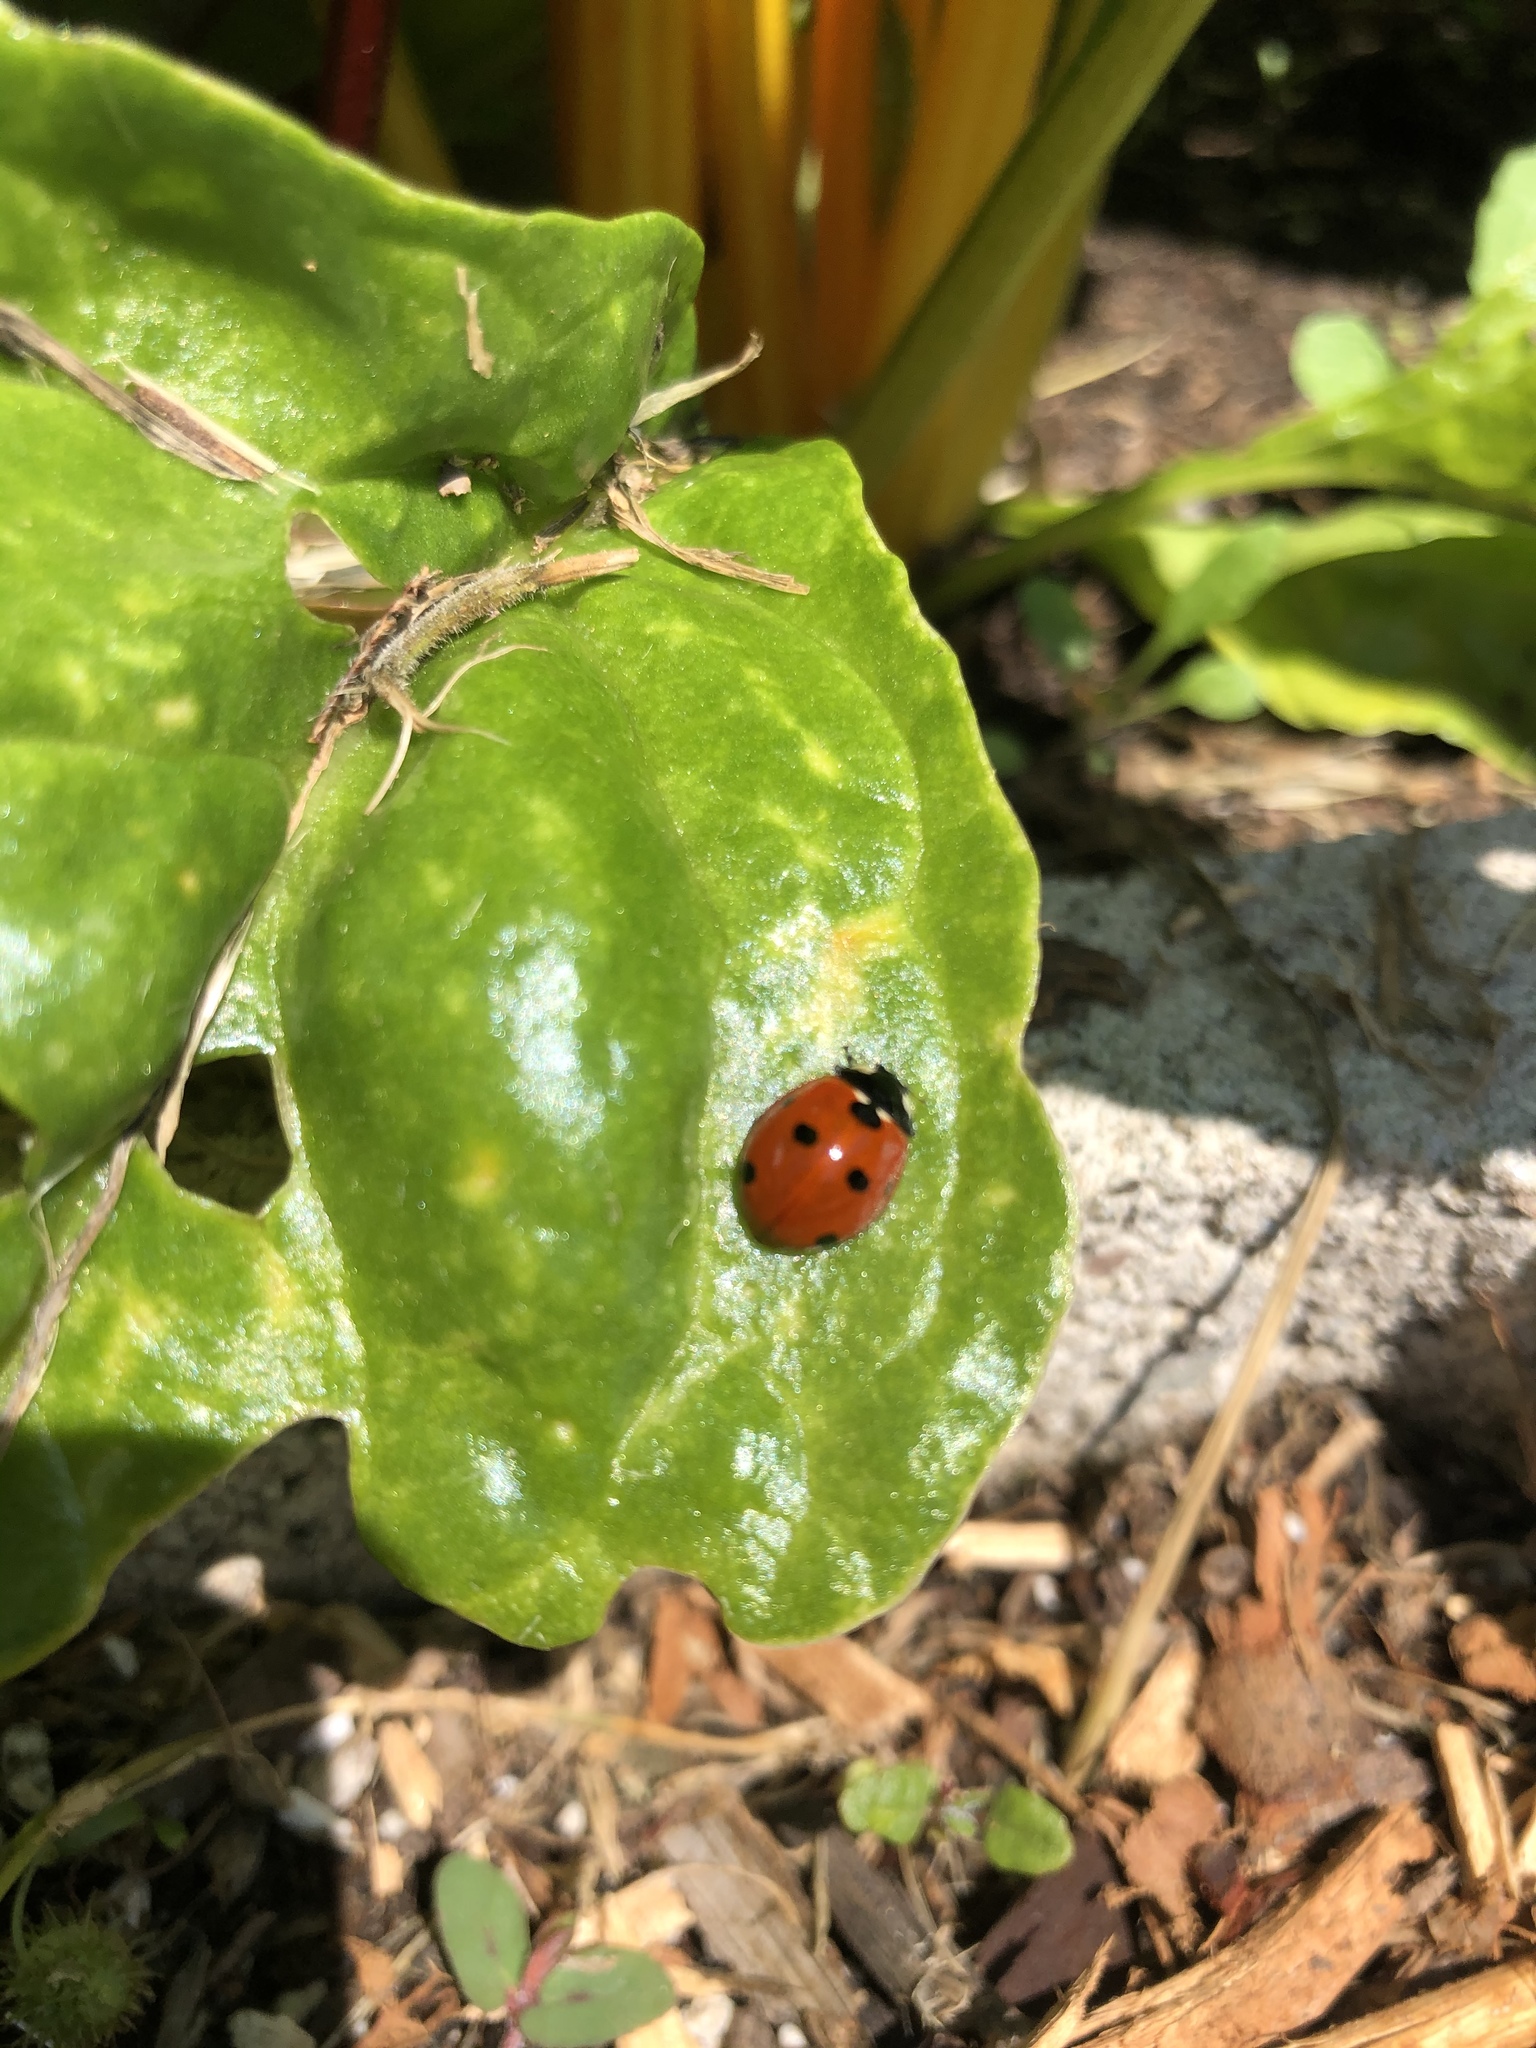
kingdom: Animalia
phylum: Arthropoda
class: Insecta
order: Coleoptera
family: Coccinellidae
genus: Coccinella
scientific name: Coccinella septempunctata
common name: Sevenspotted lady beetle
